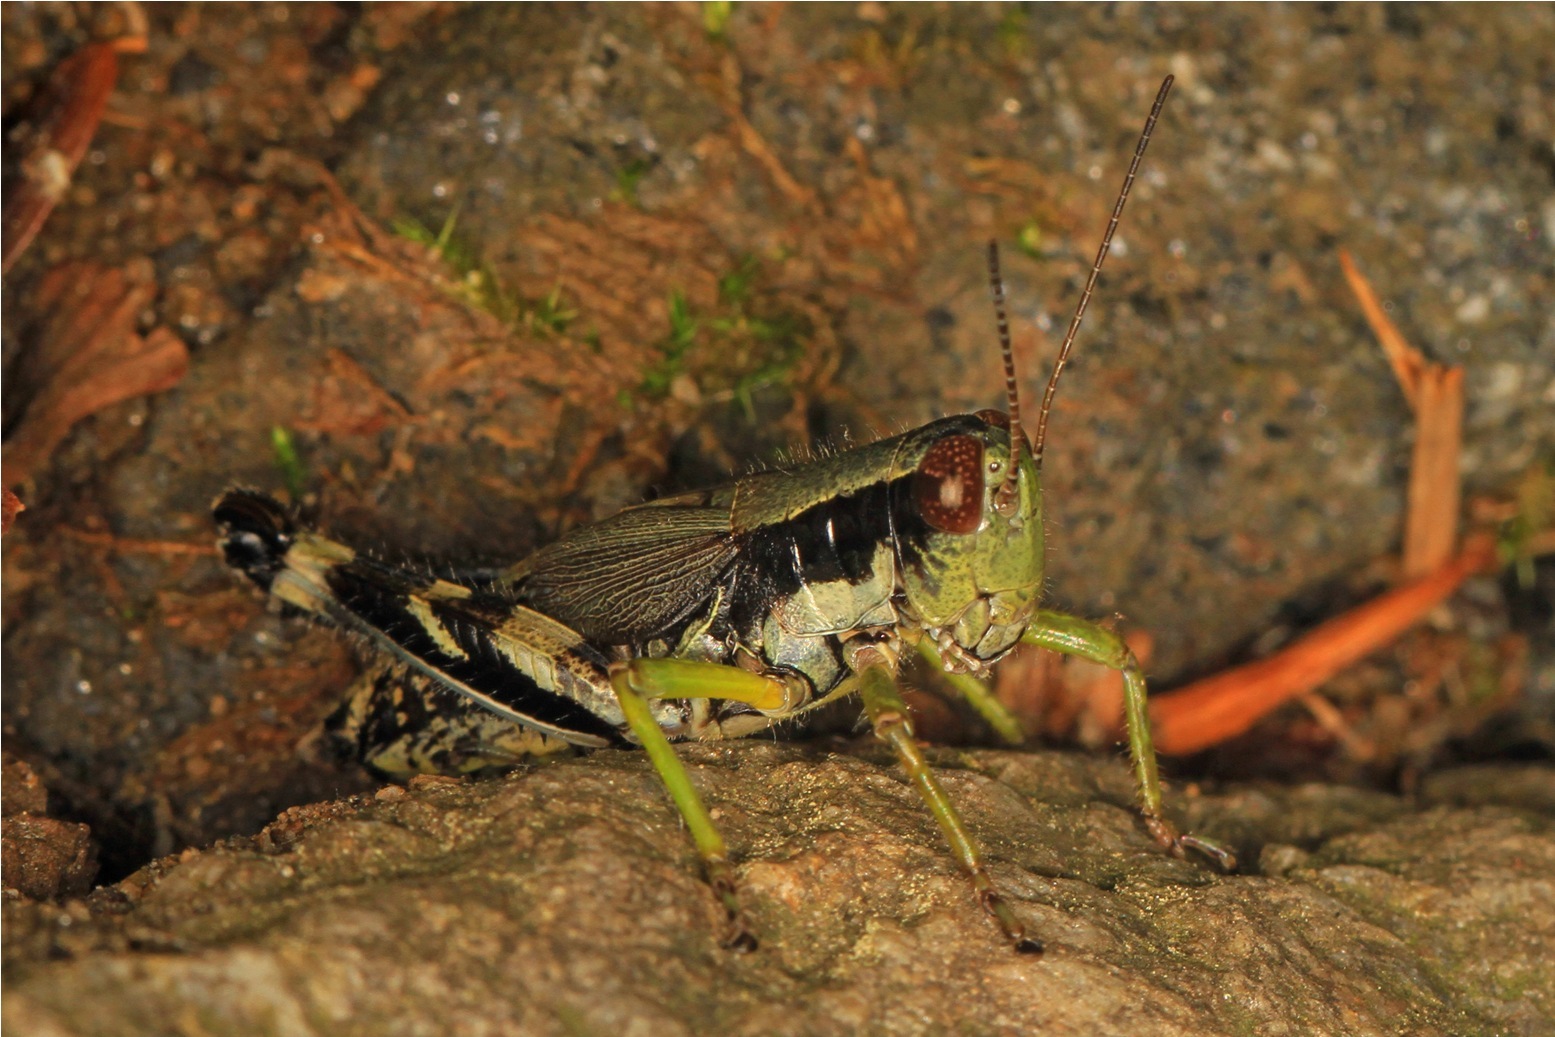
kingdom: Animalia
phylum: Arthropoda
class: Insecta
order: Orthoptera
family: Acrididae
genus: Melanoplus
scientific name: Melanoplus viridipes
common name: Green-legged locust
